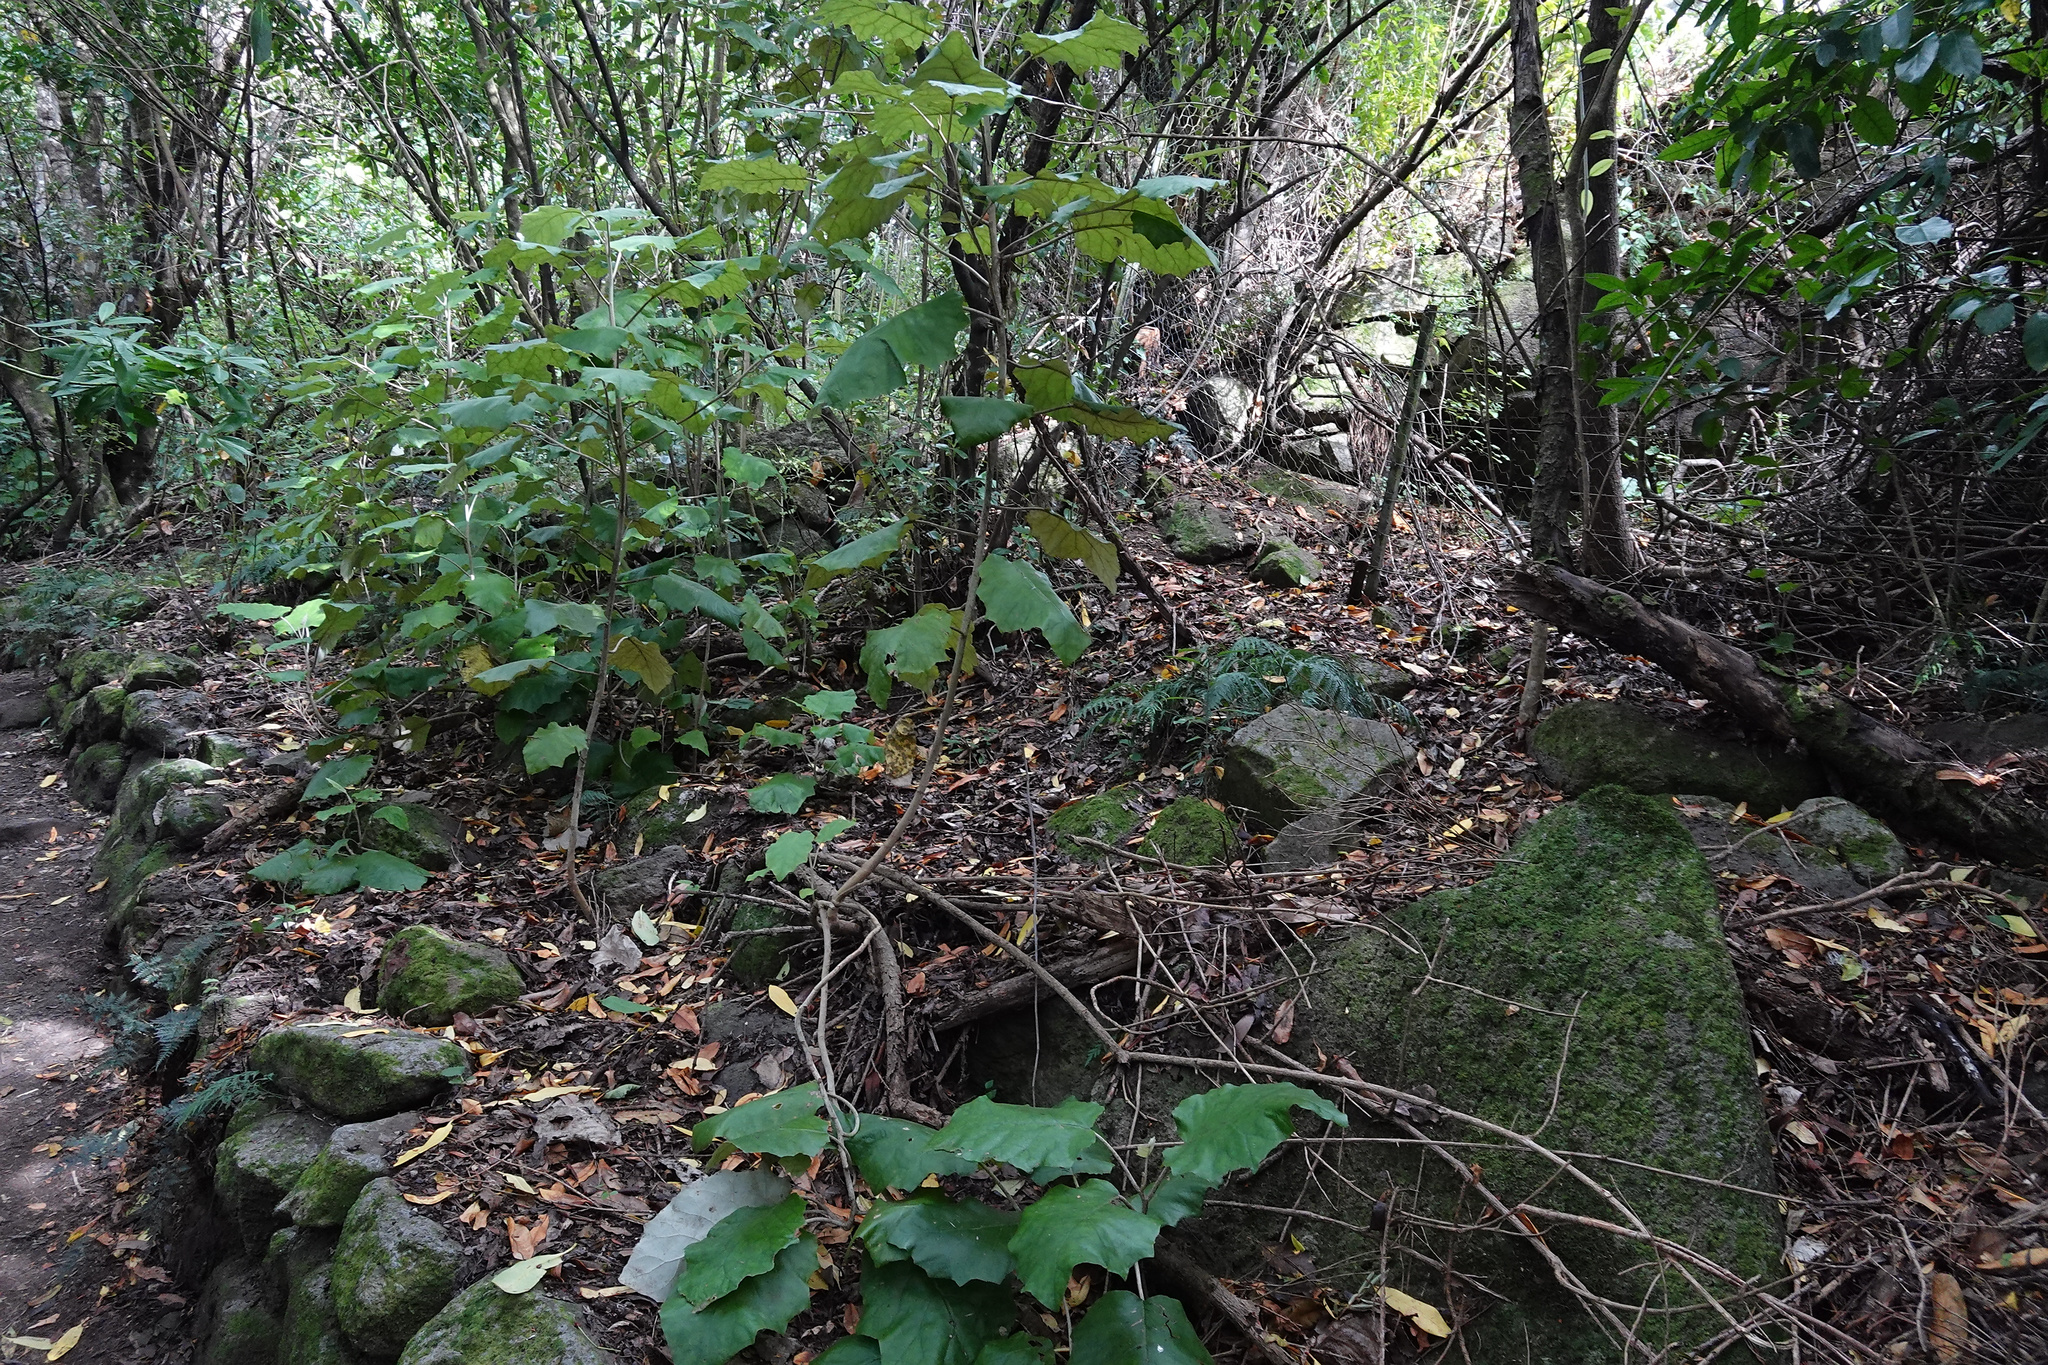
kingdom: Plantae
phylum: Tracheophyta
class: Magnoliopsida
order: Asterales
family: Asteraceae
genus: Brachyglottis
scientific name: Brachyglottis repanda
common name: Hedge ragwort
